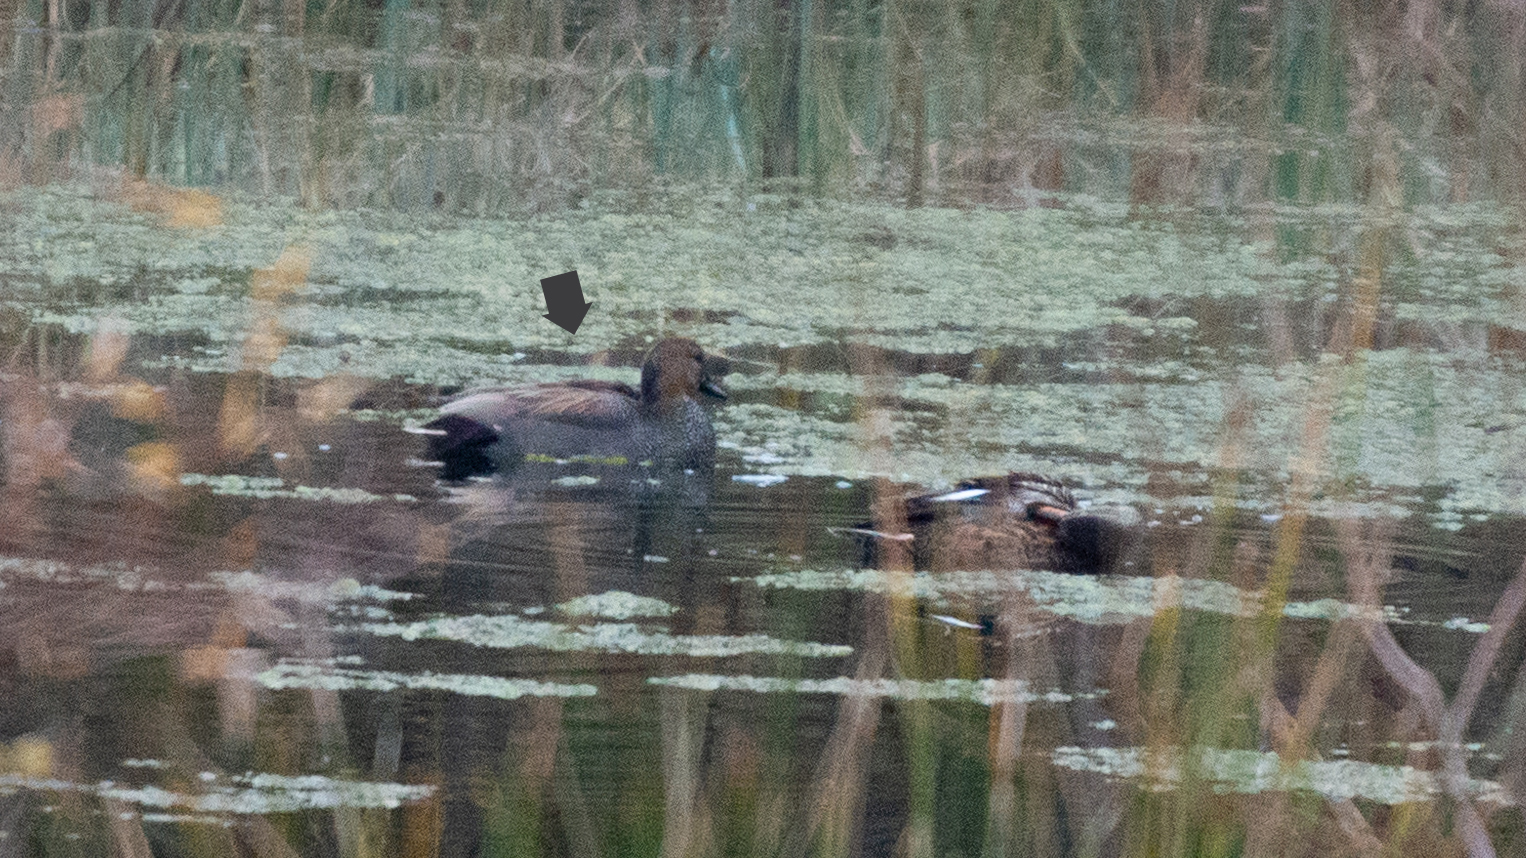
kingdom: Animalia
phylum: Chordata
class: Aves
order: Anseriformes
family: Anatidae
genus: Mareca
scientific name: Mareca strepera
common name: Gadwall
